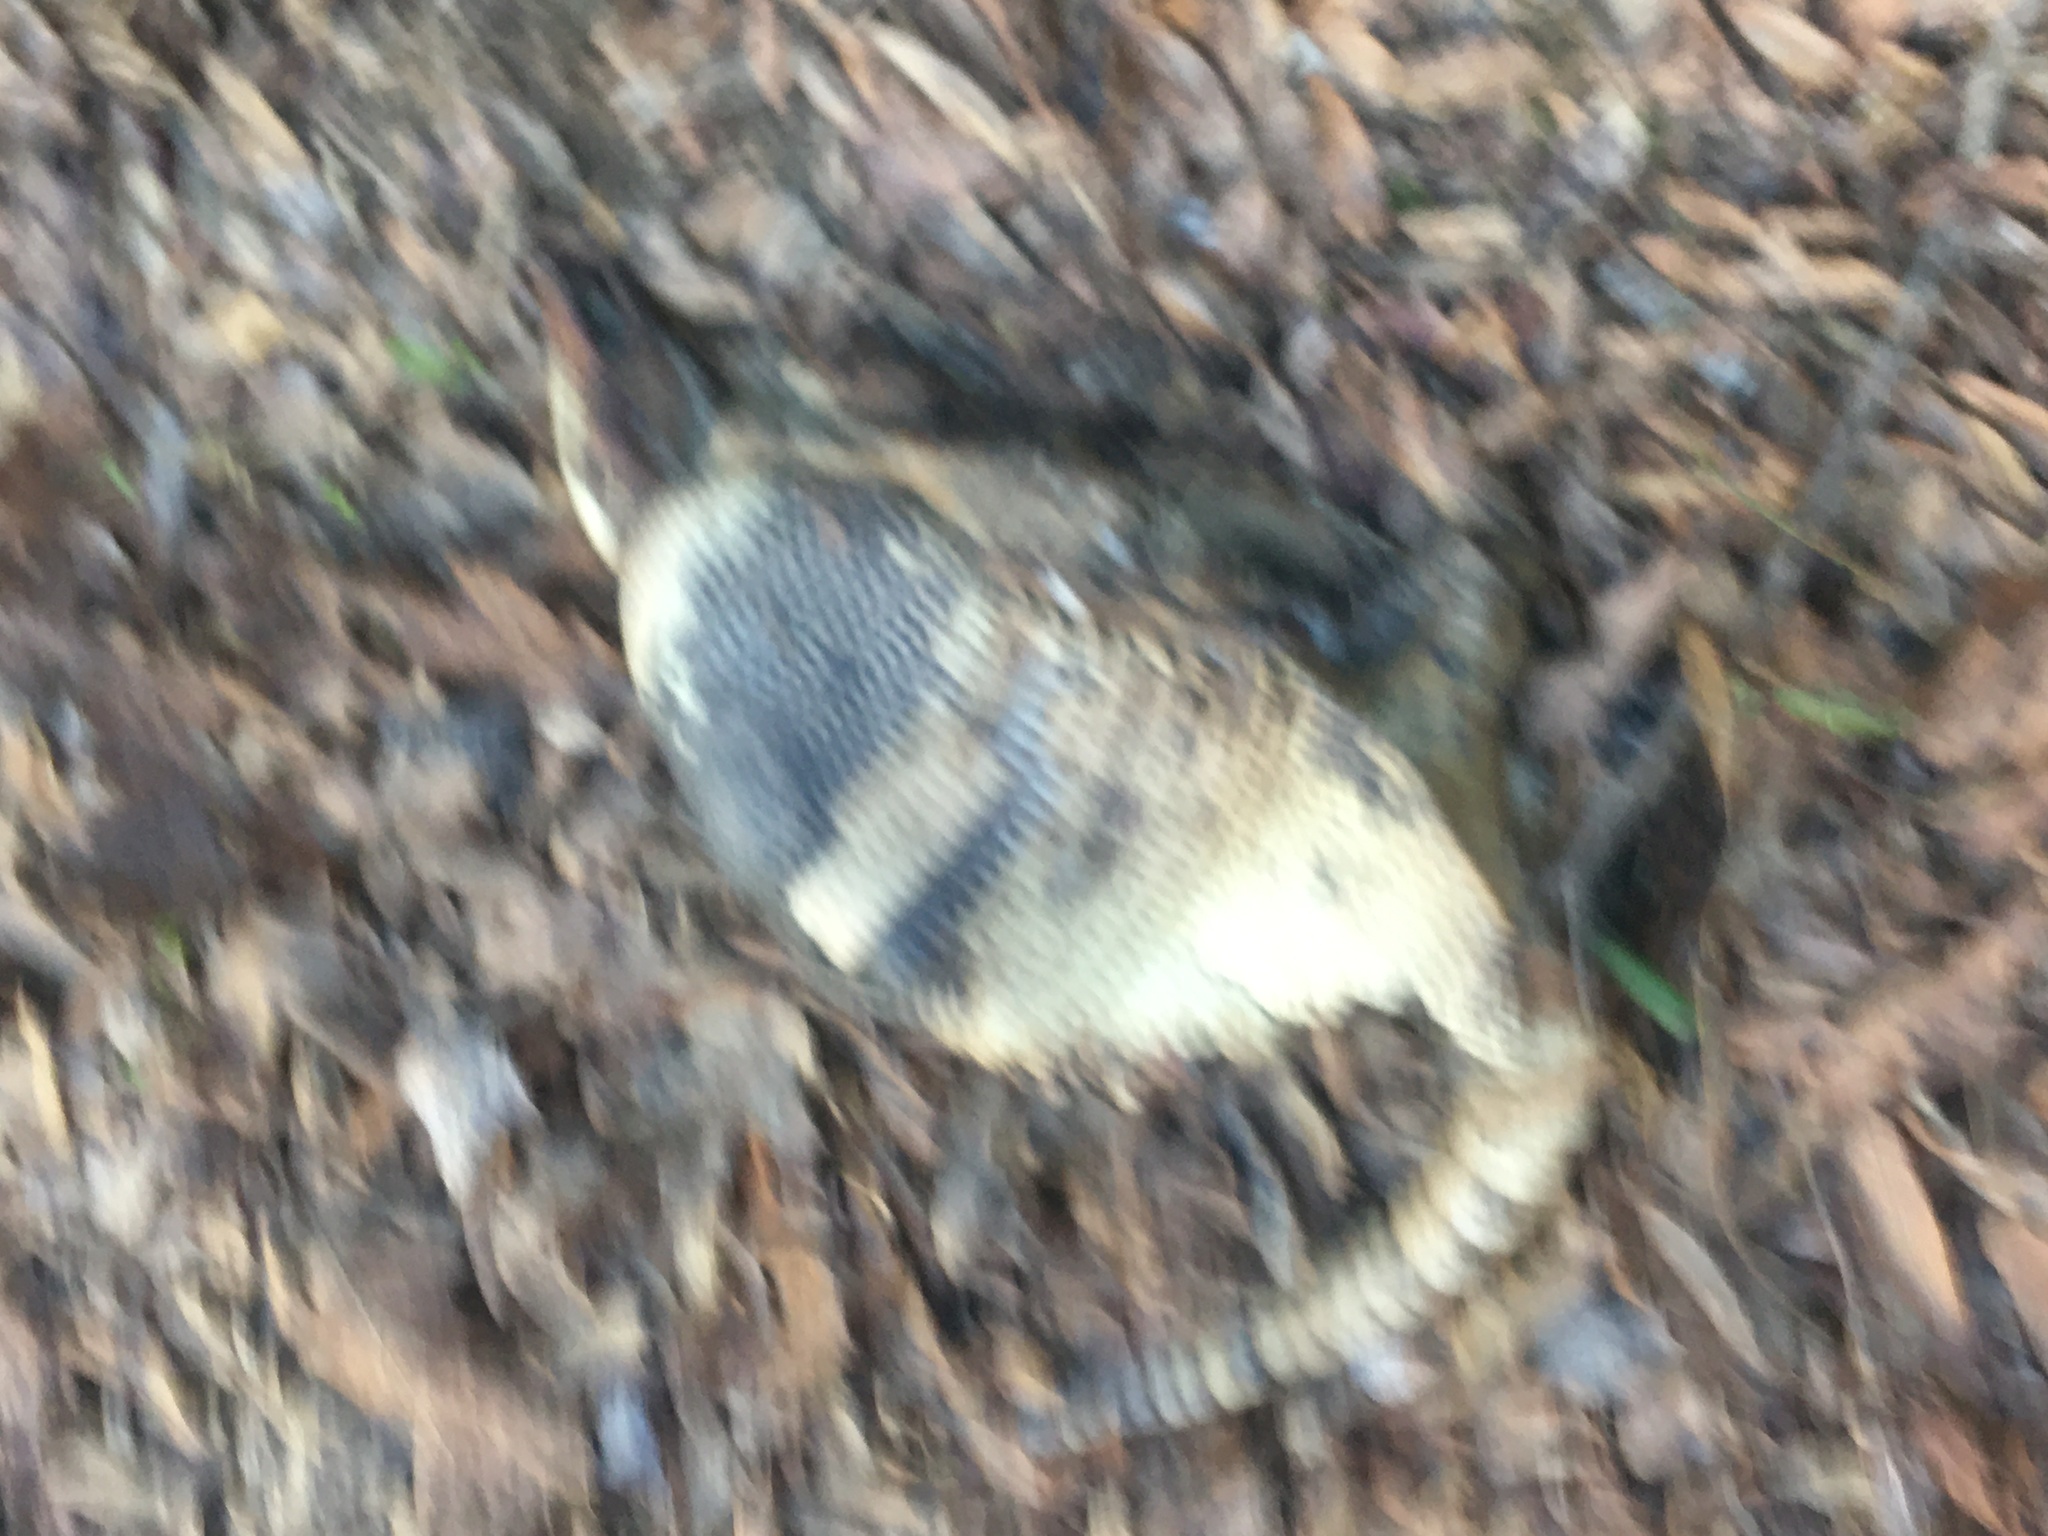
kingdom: Animalia
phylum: Chordata
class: Mammalia
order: Cingulata
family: Dasypodidae
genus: Dasypus
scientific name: Dasypus novemcinctus
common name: Nine-banded armadillo
